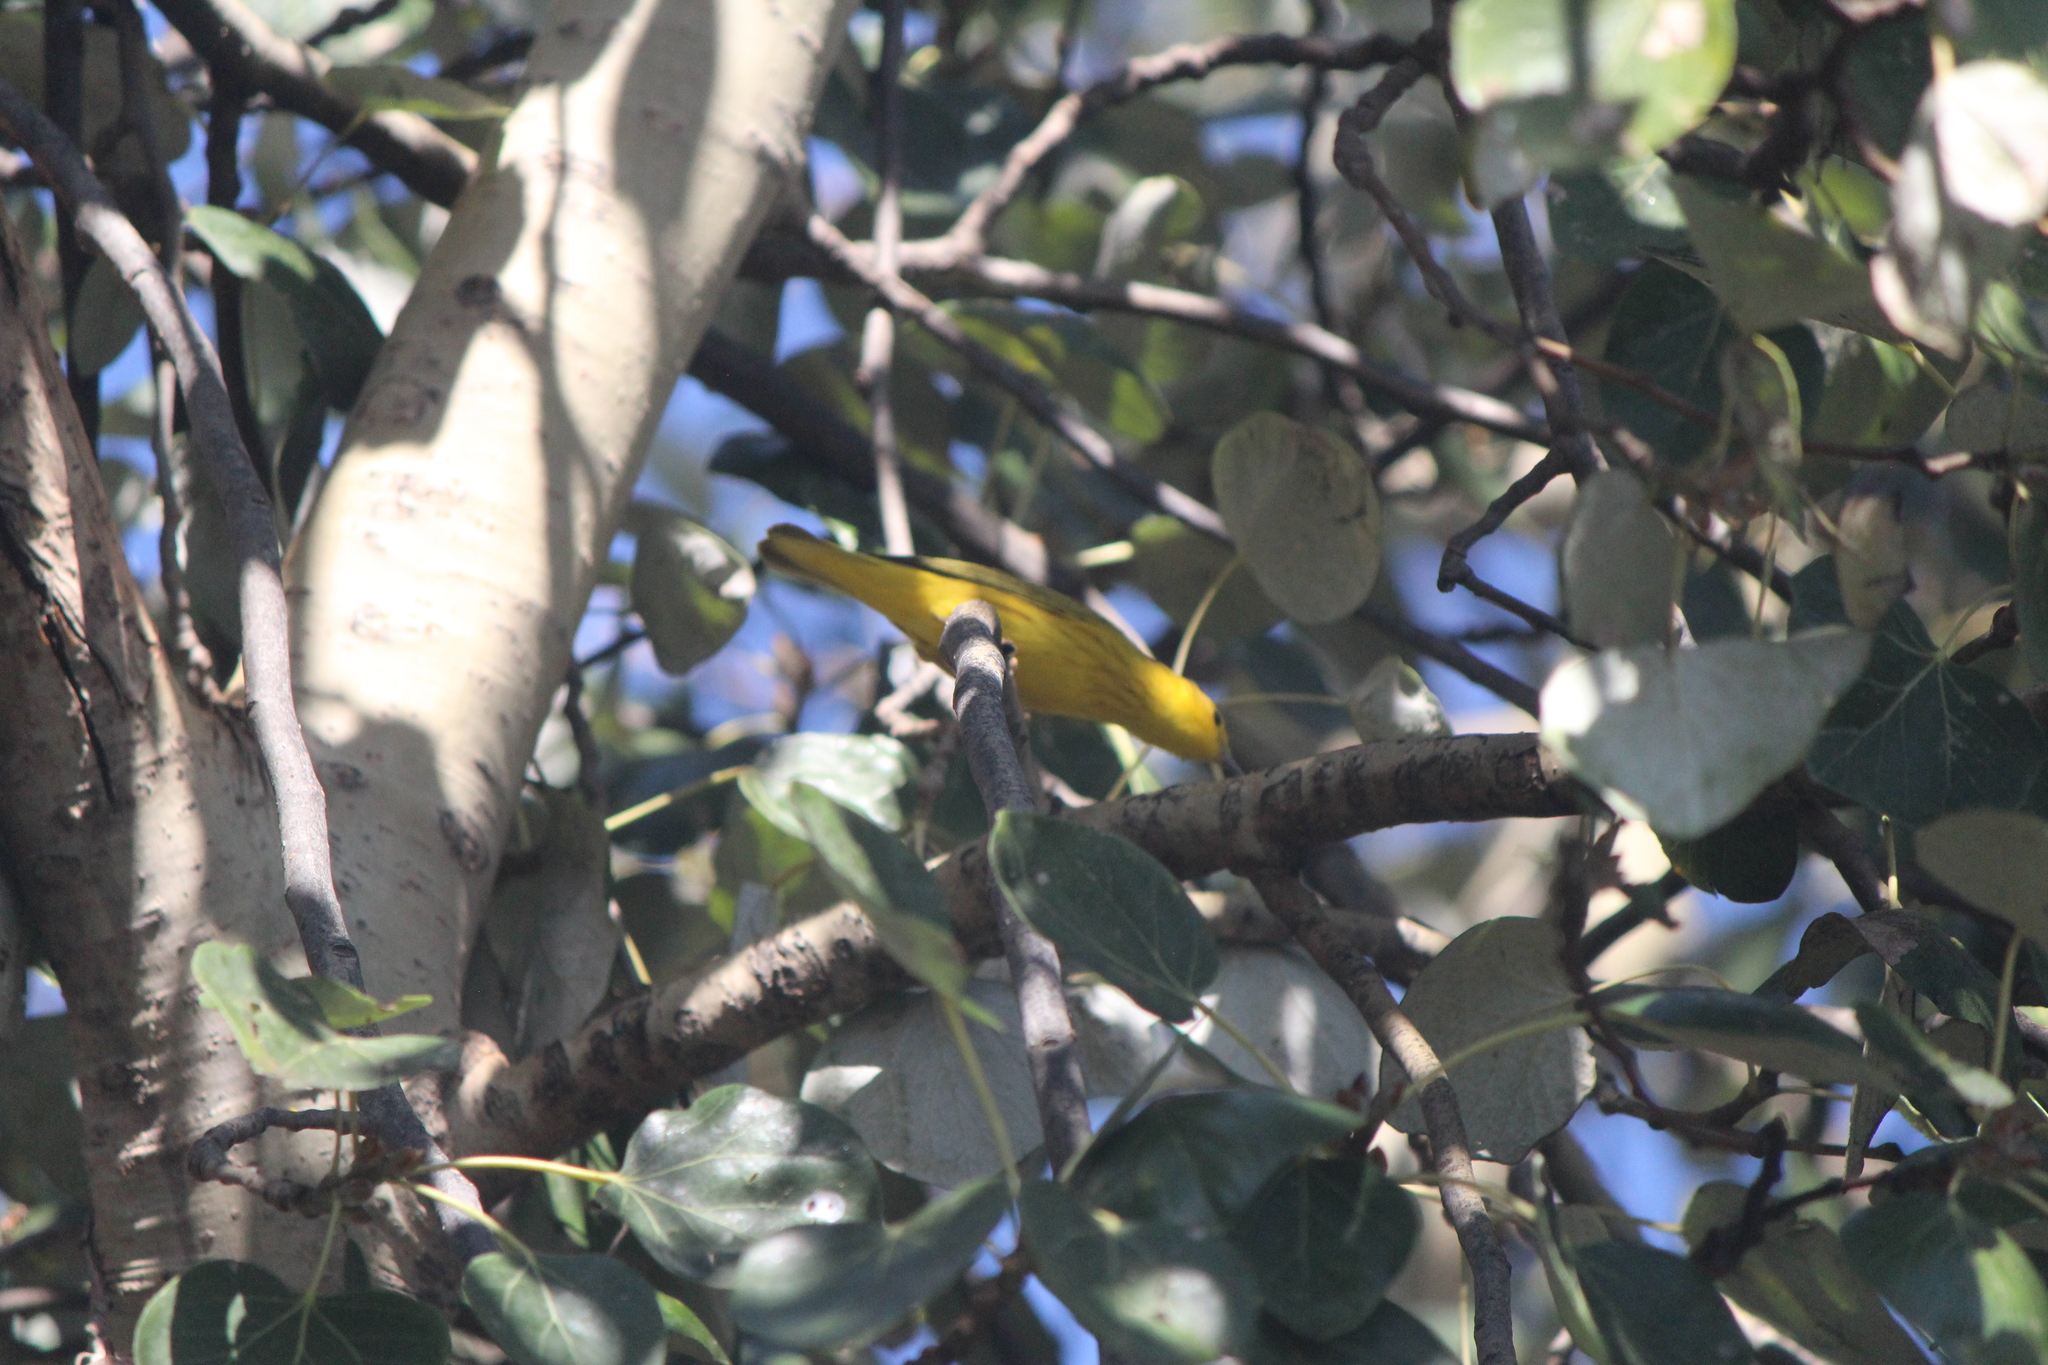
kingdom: Animalia
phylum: Chordata
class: Aves
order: Passeriformes
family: Parulidae
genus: Setophaga
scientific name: Setophaga petechia
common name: Yellow warbler
